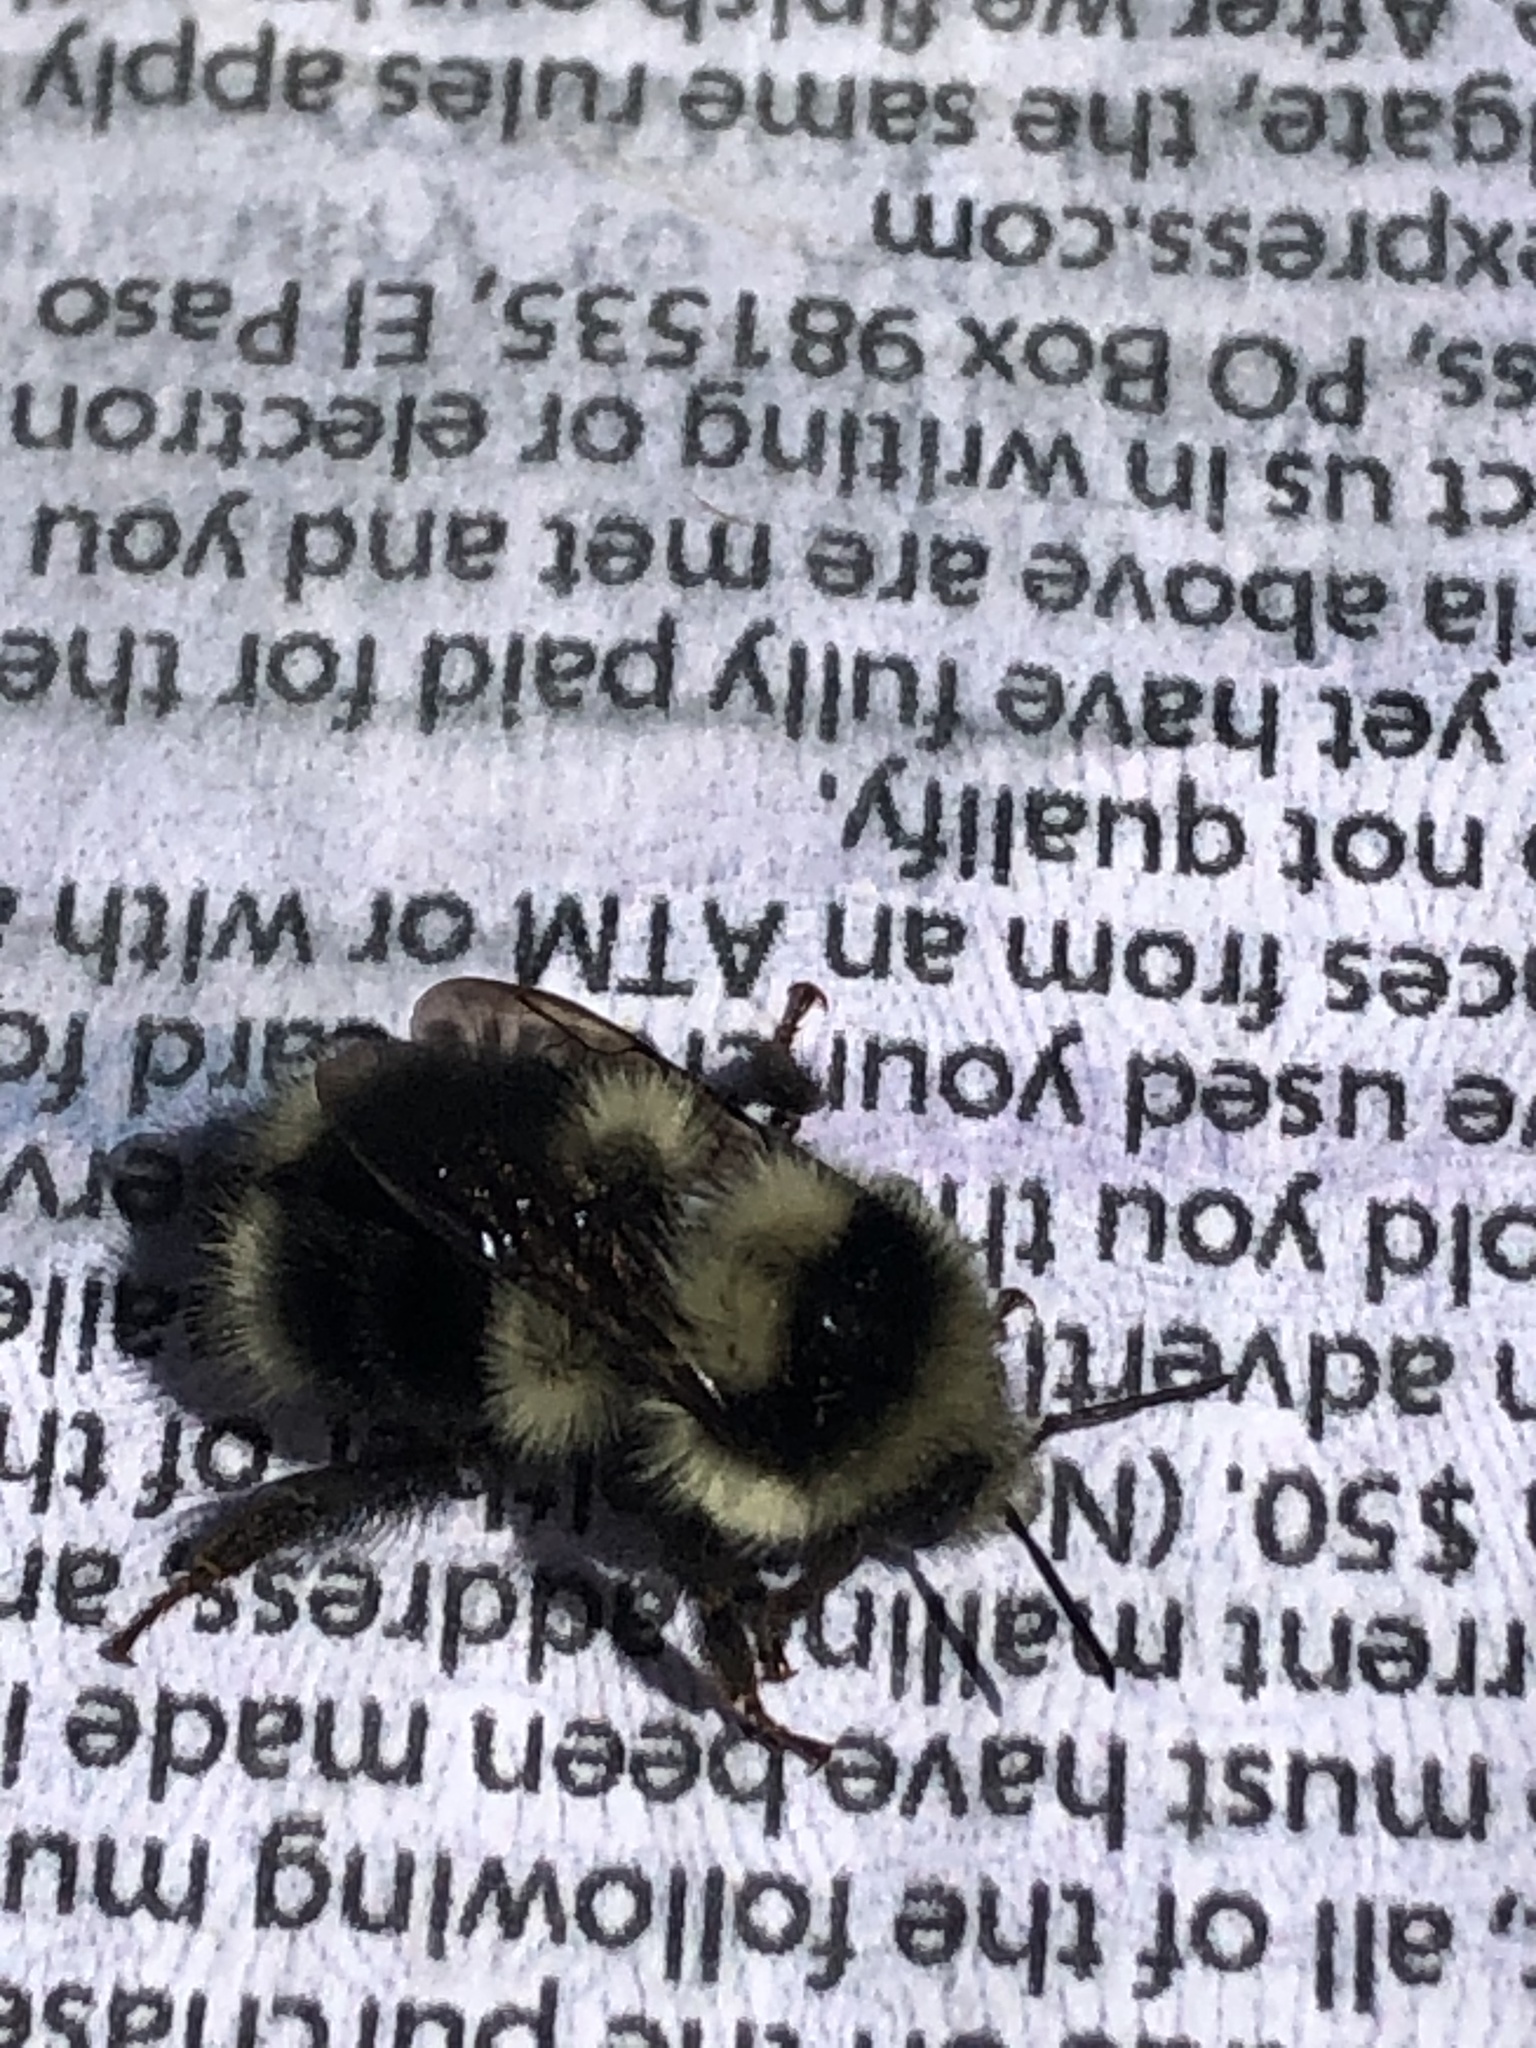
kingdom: Animalia
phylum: Arthropoda
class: Insecta
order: Hymenoptera
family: Apidae
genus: Bombus
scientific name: Bombus melanopygus
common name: Black tail bumble bee
